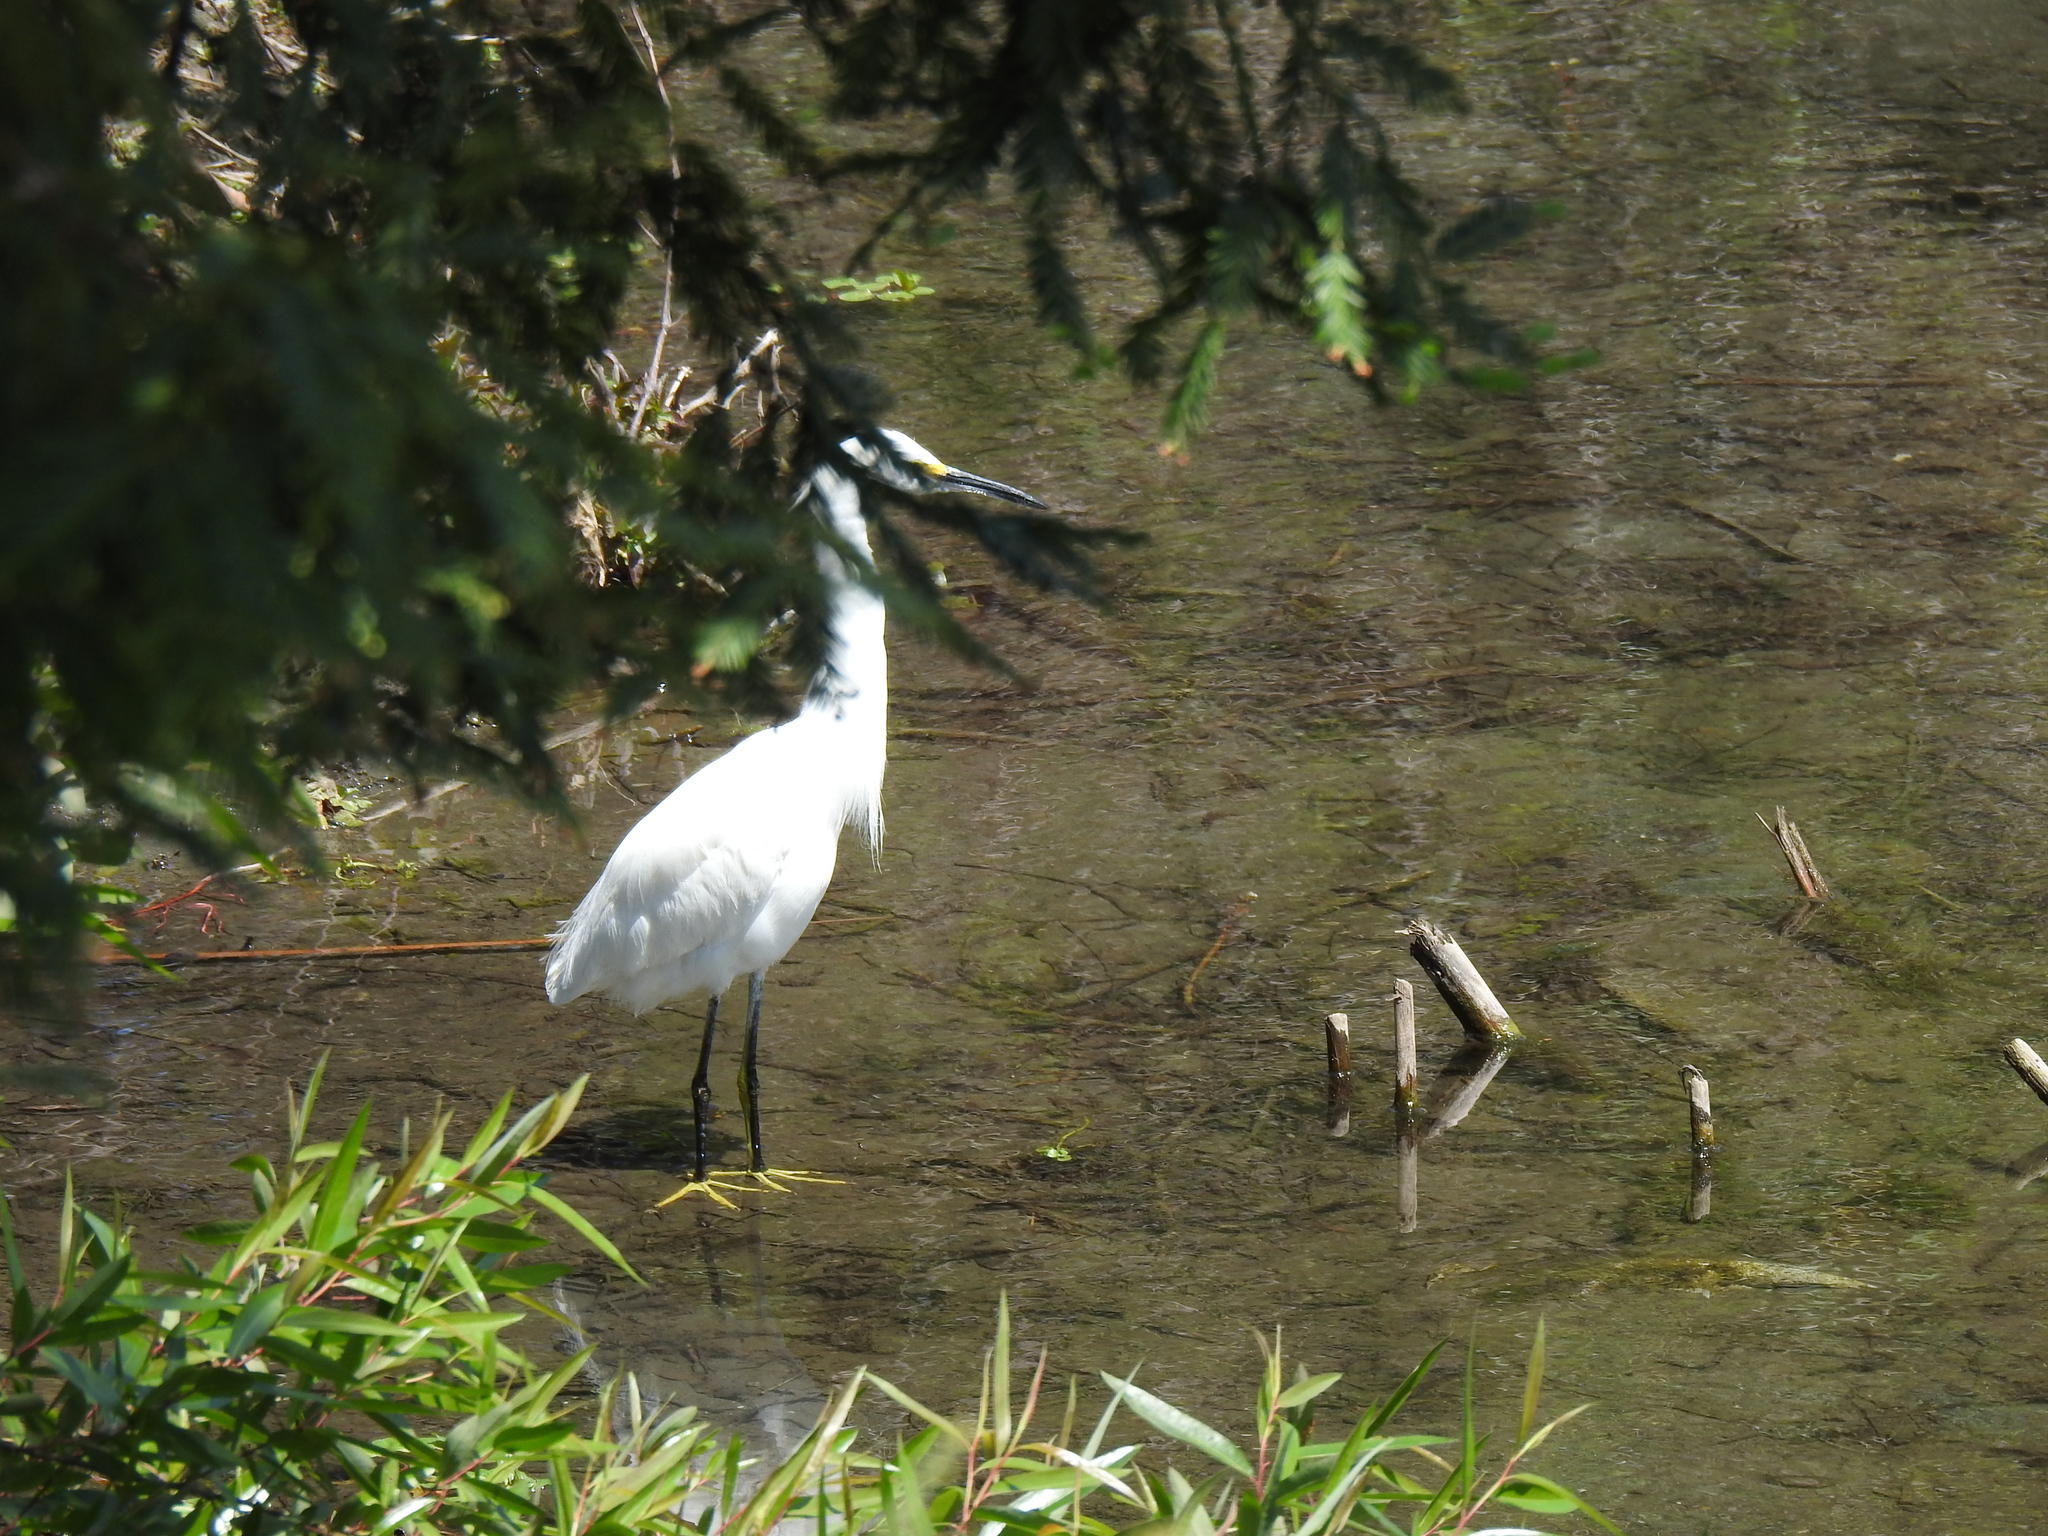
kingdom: Animalia
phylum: Chordata
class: Aves
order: Pelecaniformes
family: Ardeidae
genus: Egretta
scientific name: Egretta thula
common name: Snowy egret
